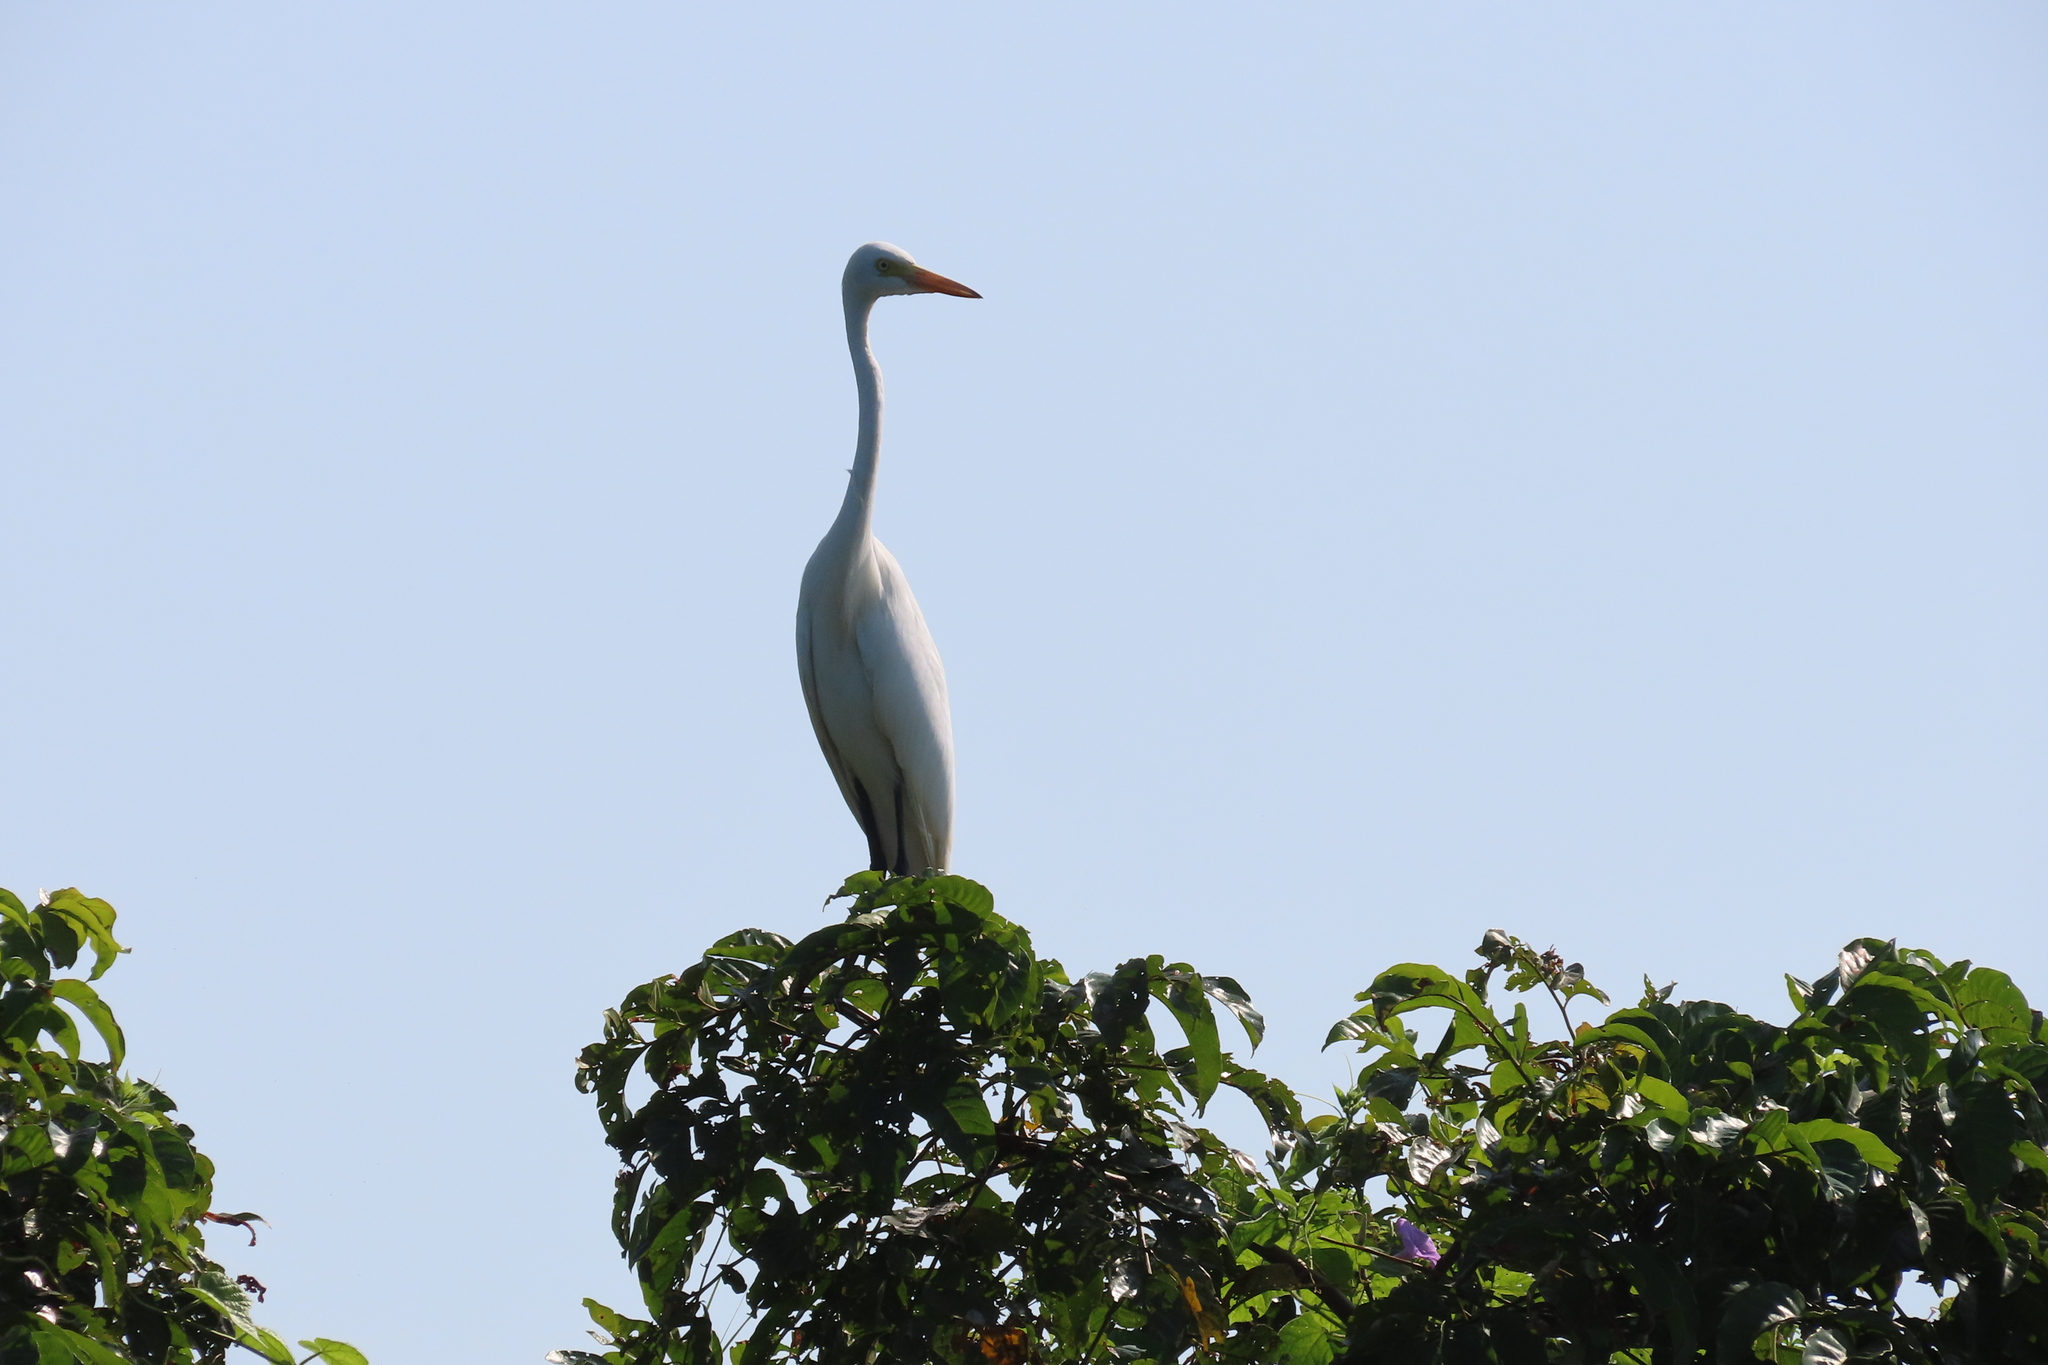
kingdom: Animalia
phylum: Chordata
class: Aves
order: Pelecaniformes
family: Ardeidae
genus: Egretta
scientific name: Egretta intermedia
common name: Intermediate egret
